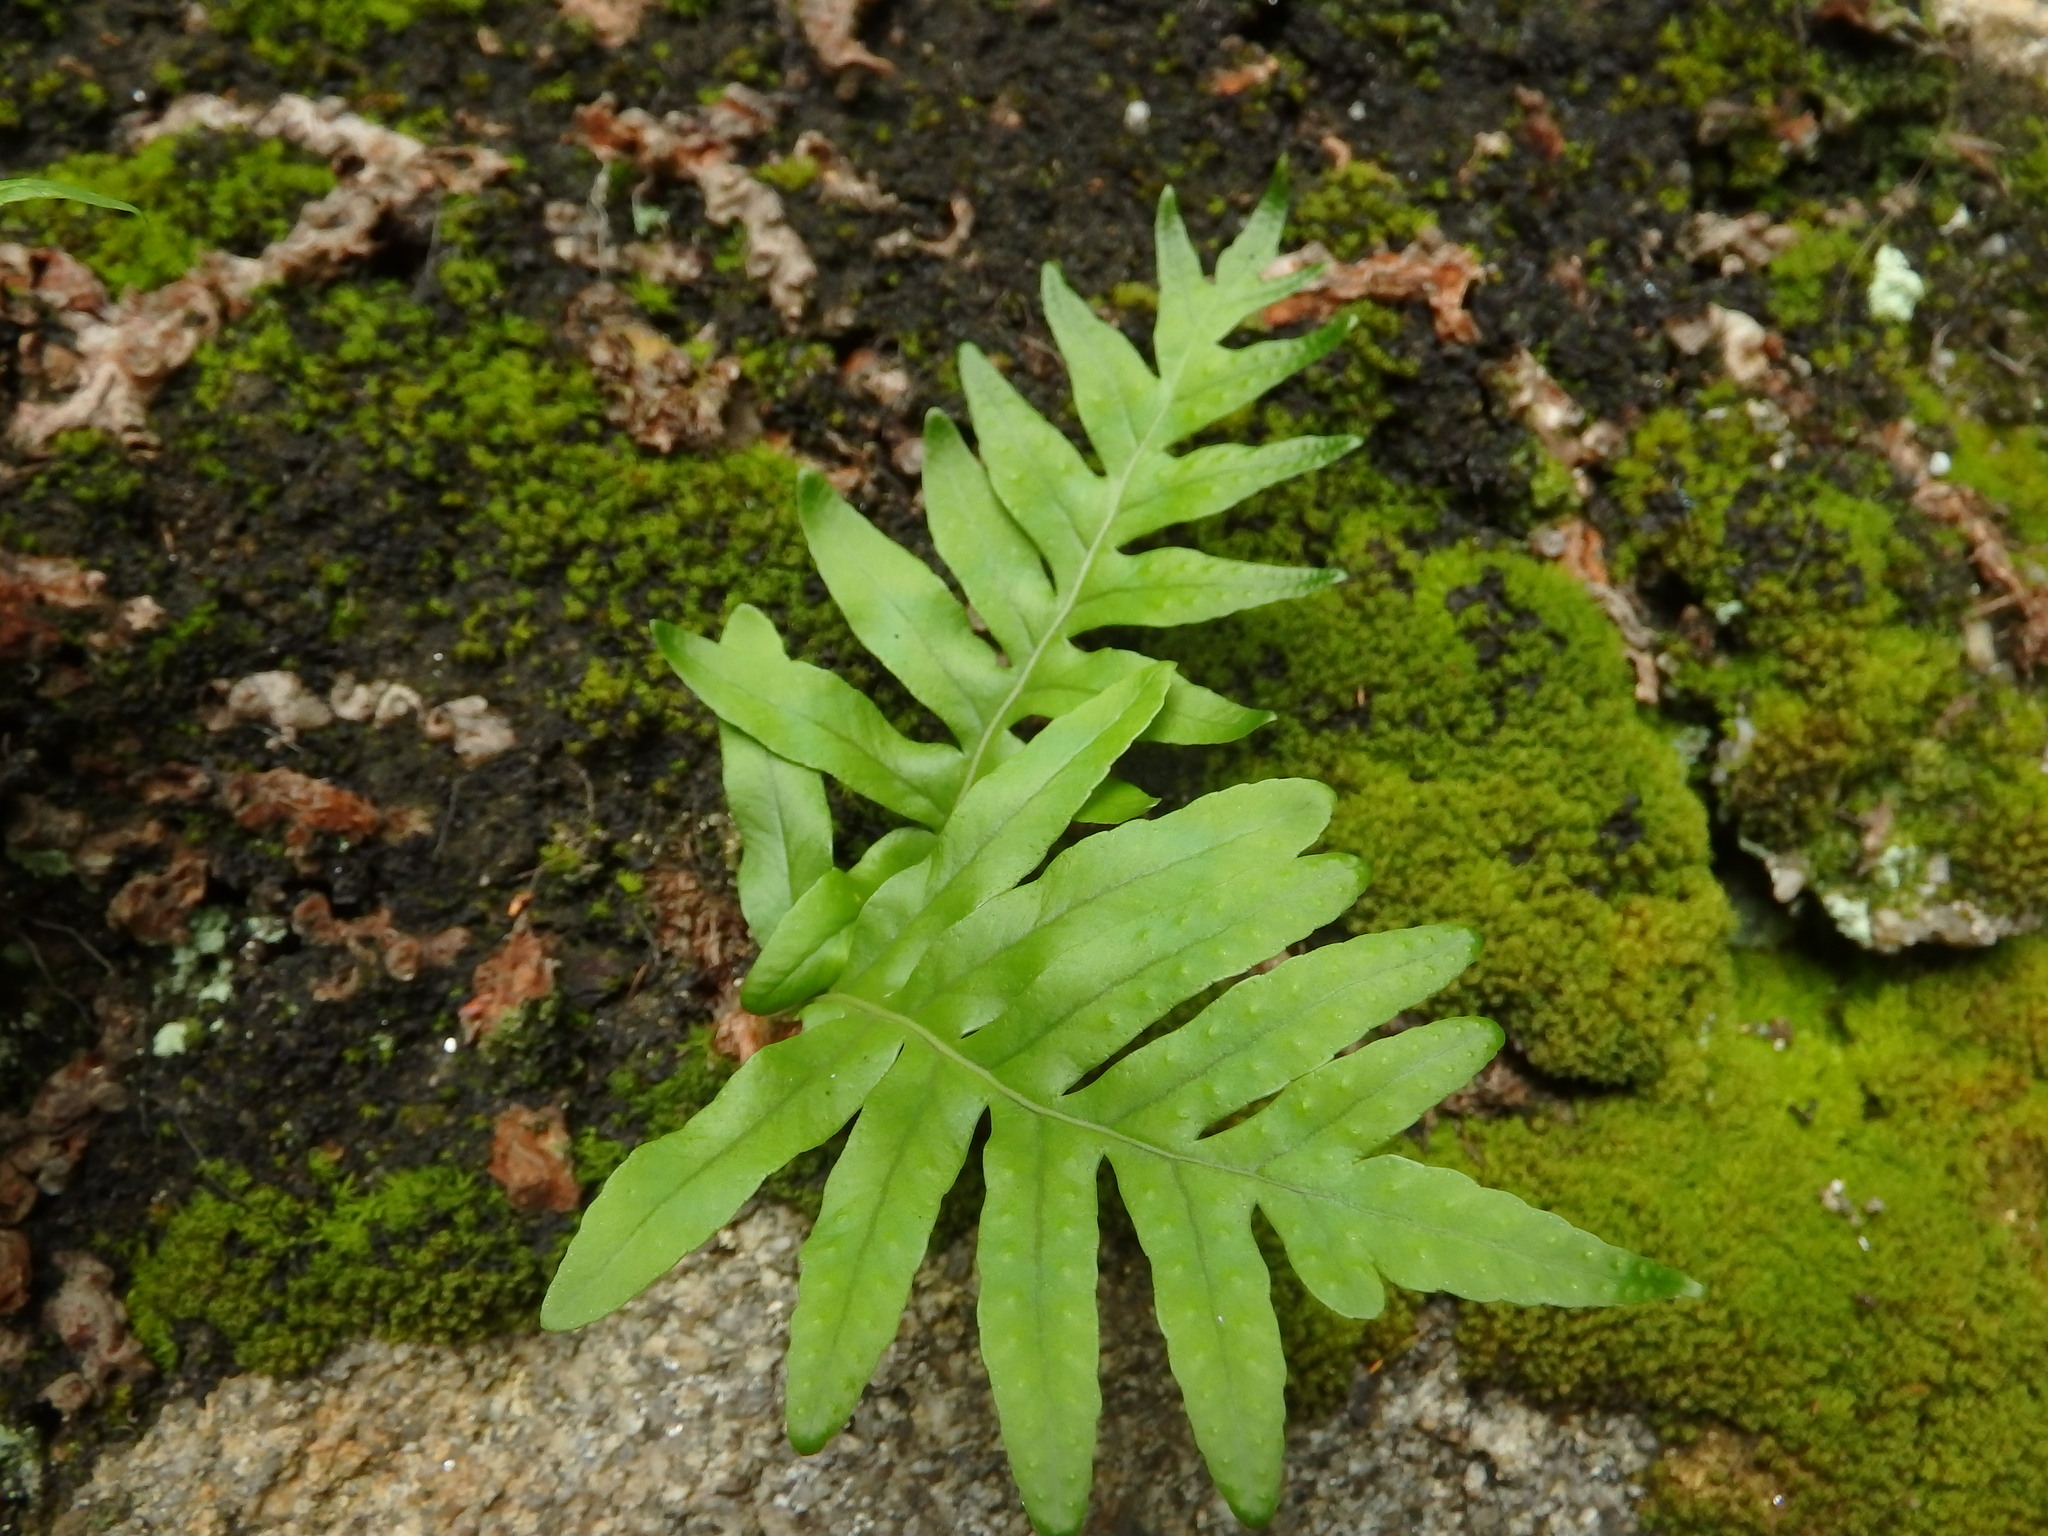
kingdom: Plantae
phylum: Tracheophyta
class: Polypodiopsida
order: Polypodiales
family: Polypodiaceae
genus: Polypodium
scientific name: Polypodium cambricum
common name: Southern polypody
